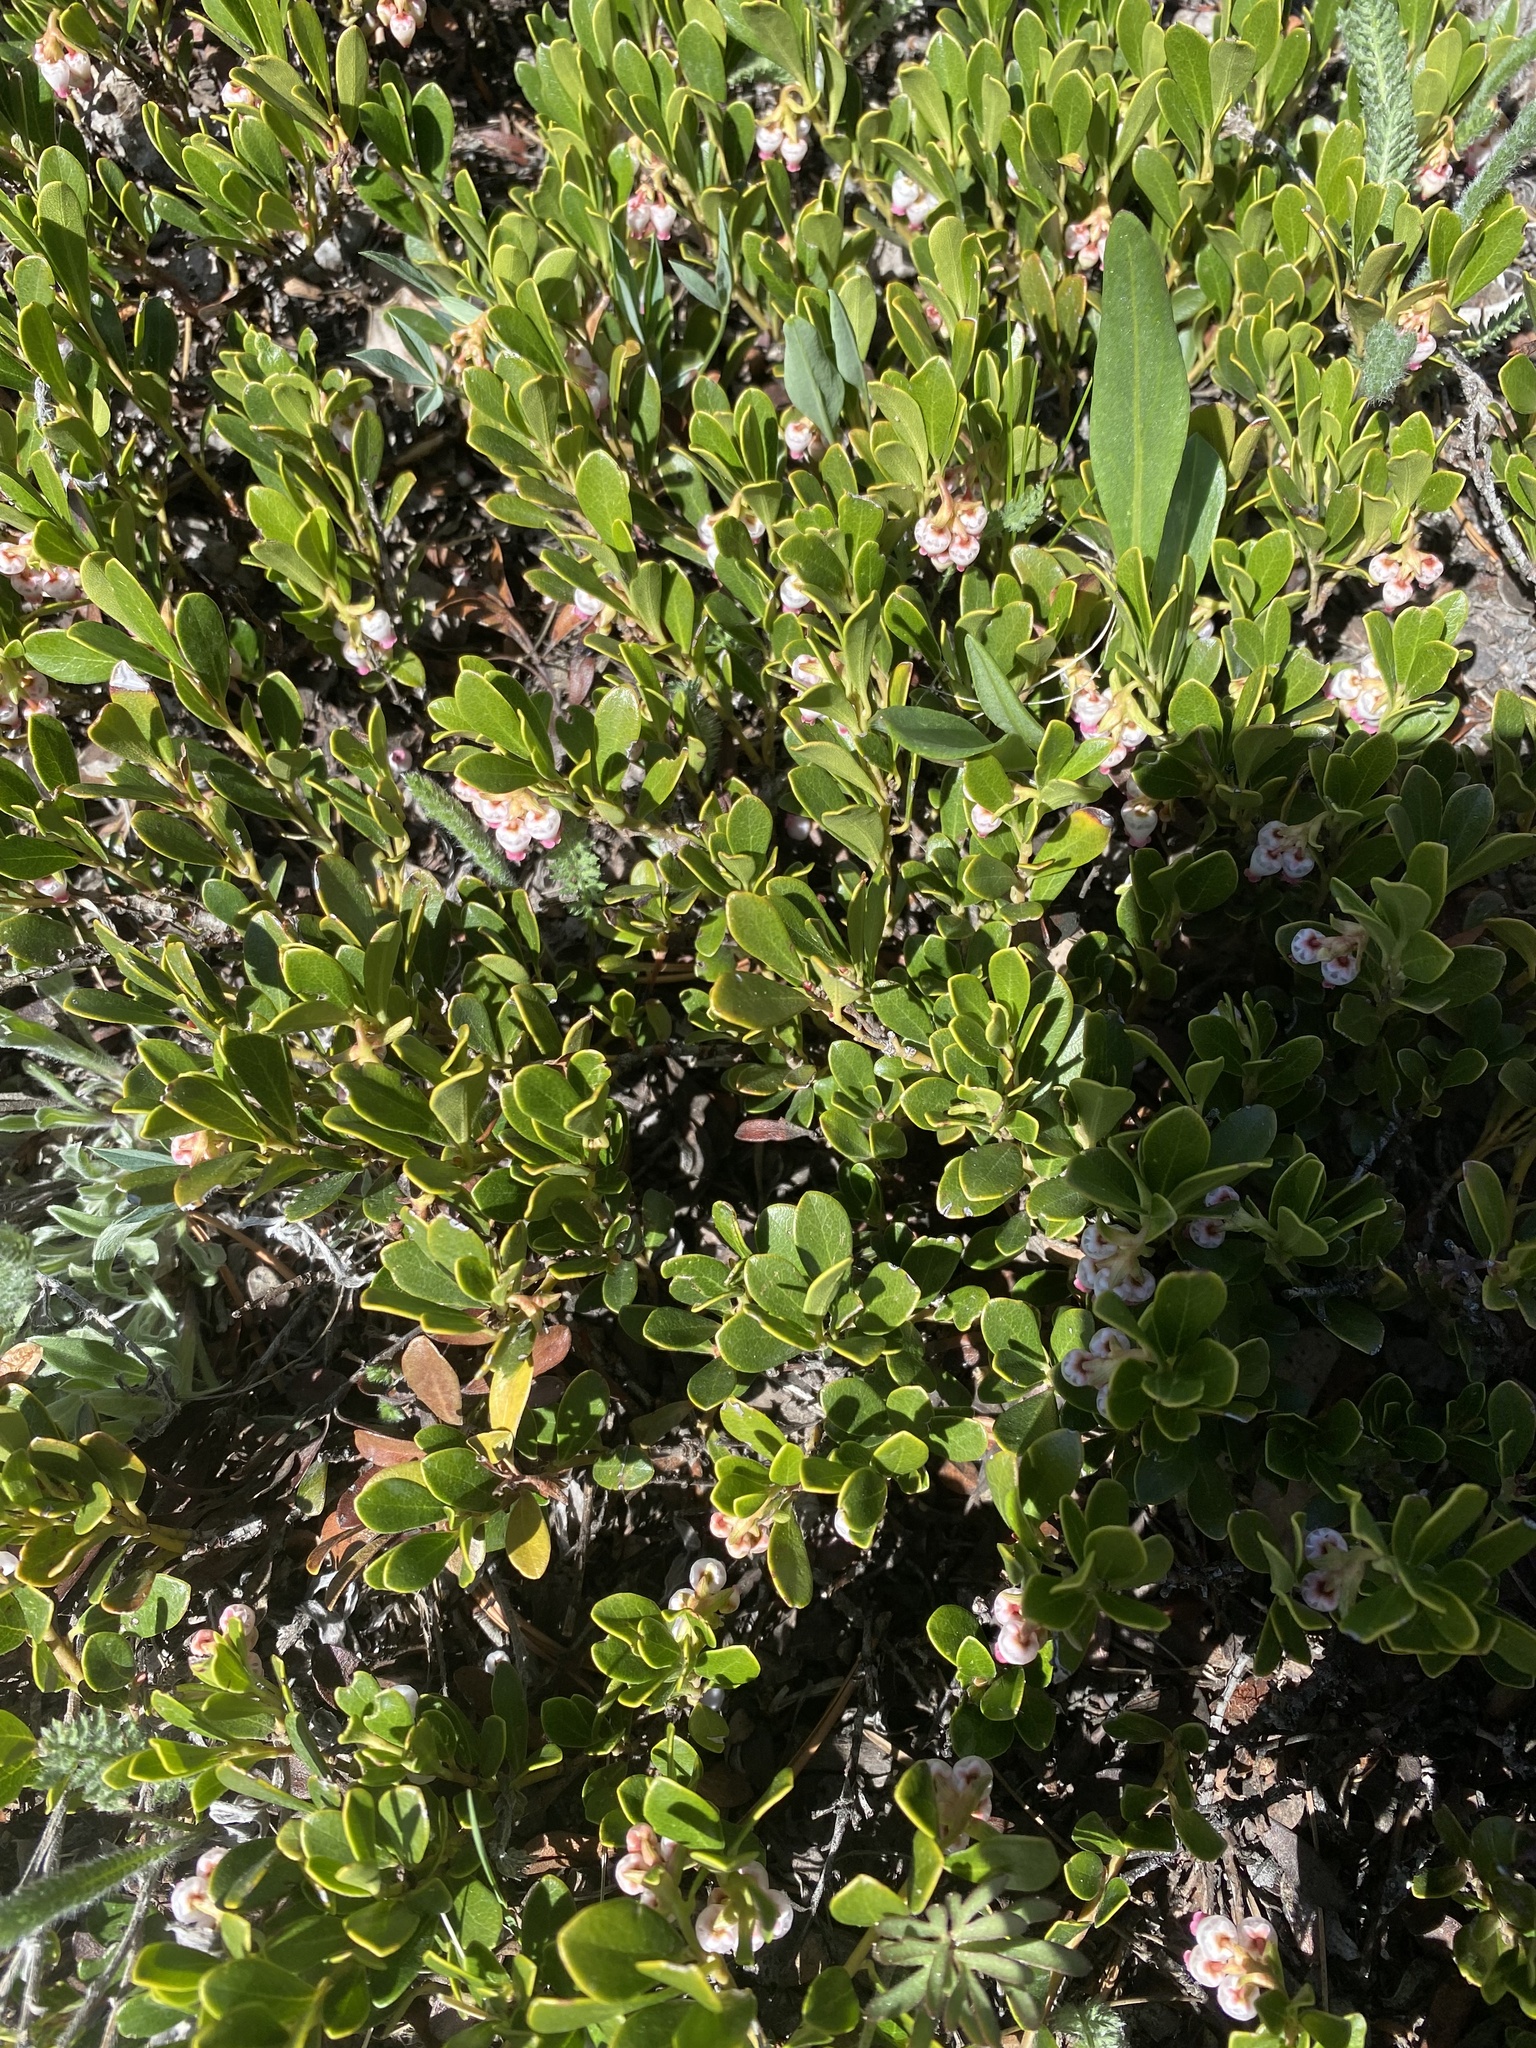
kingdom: Plantae
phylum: Tracheophyta
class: Magnoliopsida
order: Ericales
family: Ericaceae
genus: Arctostaphylos
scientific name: Arctostaphylos uva-ursi
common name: Bearberry
